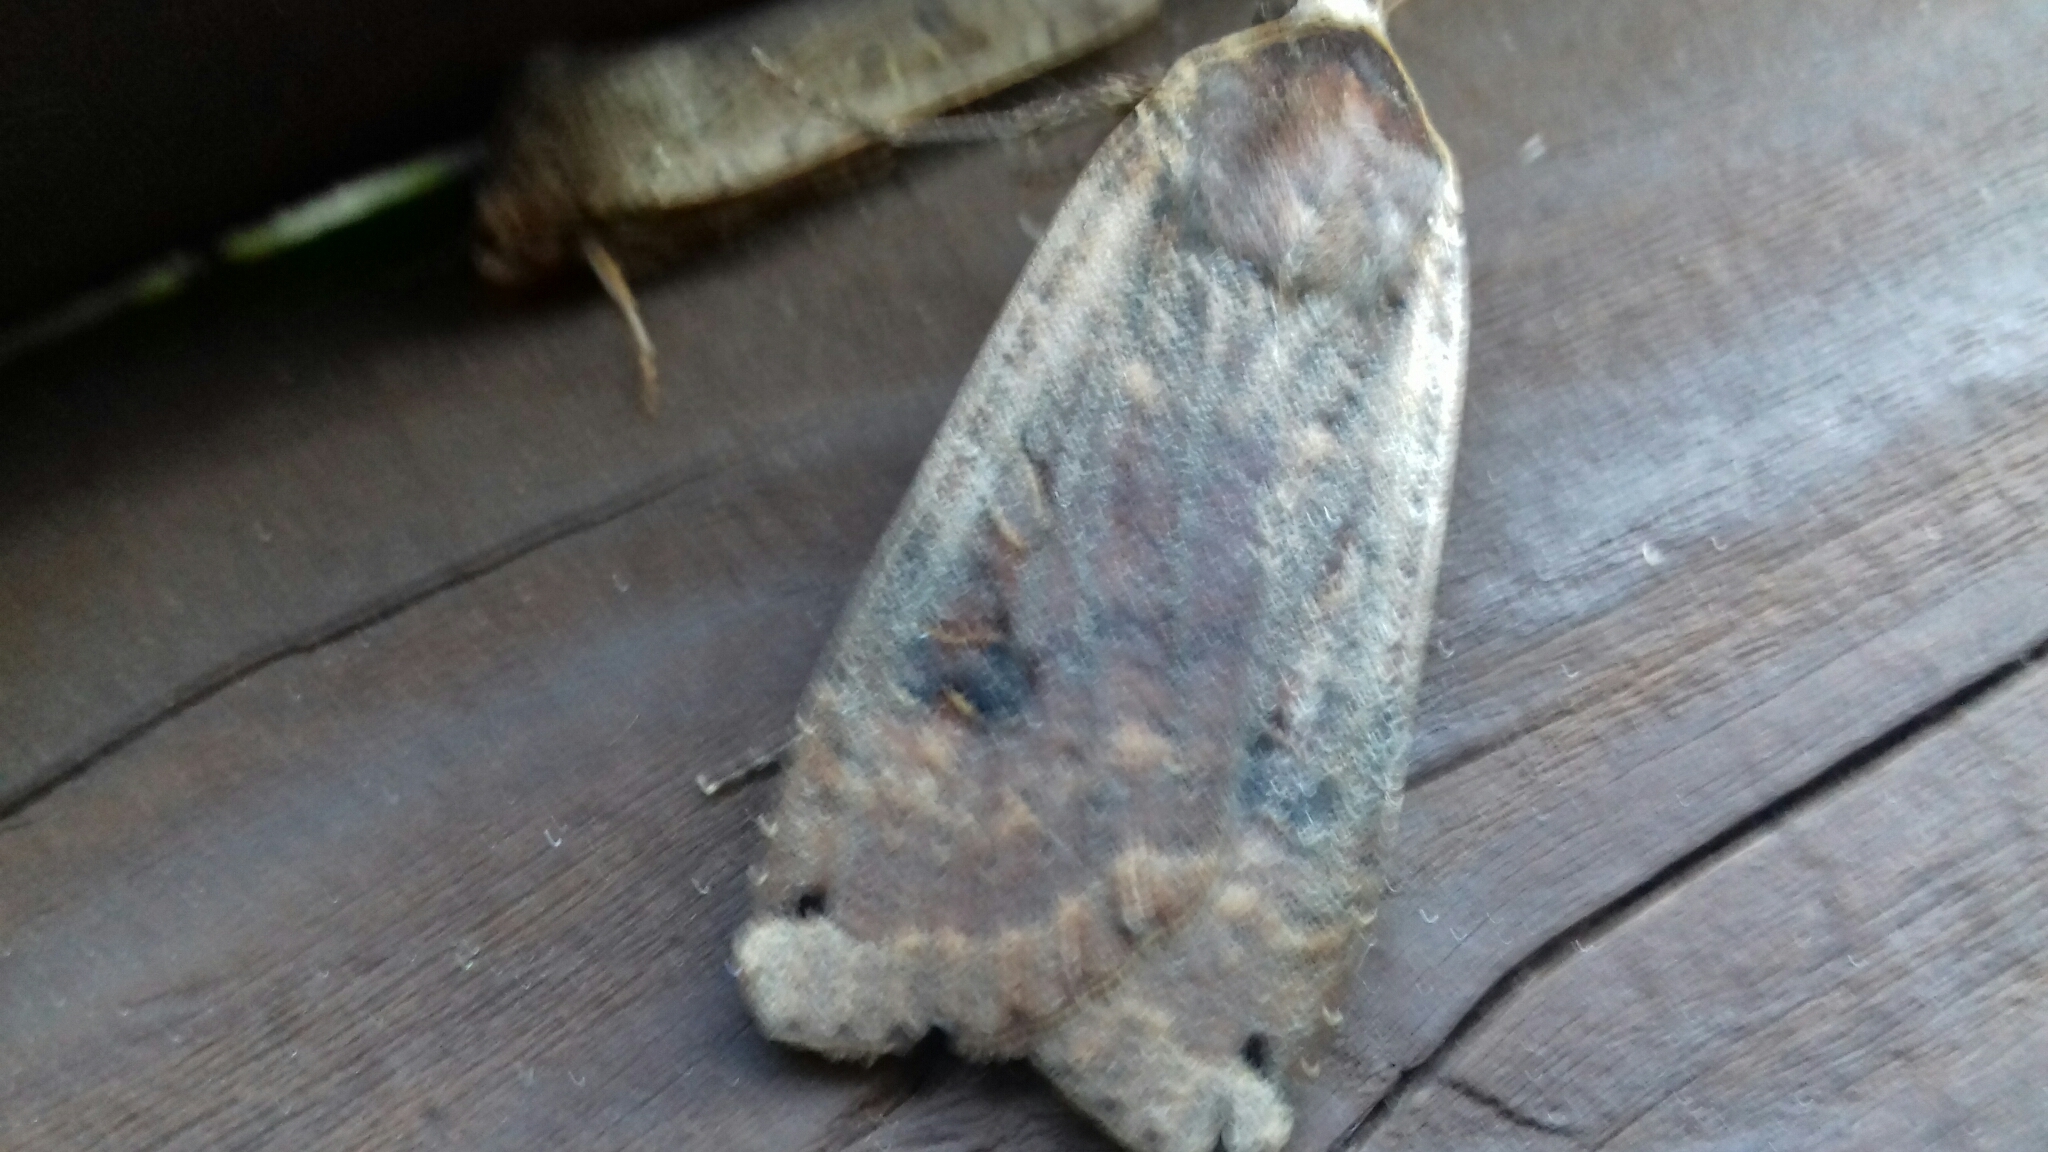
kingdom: Animalia
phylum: Arthropoda
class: Insecta
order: Lepidoptera
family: Noctuidae
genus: Noctua
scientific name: Noctua pronuba
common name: Large yellow underwing
